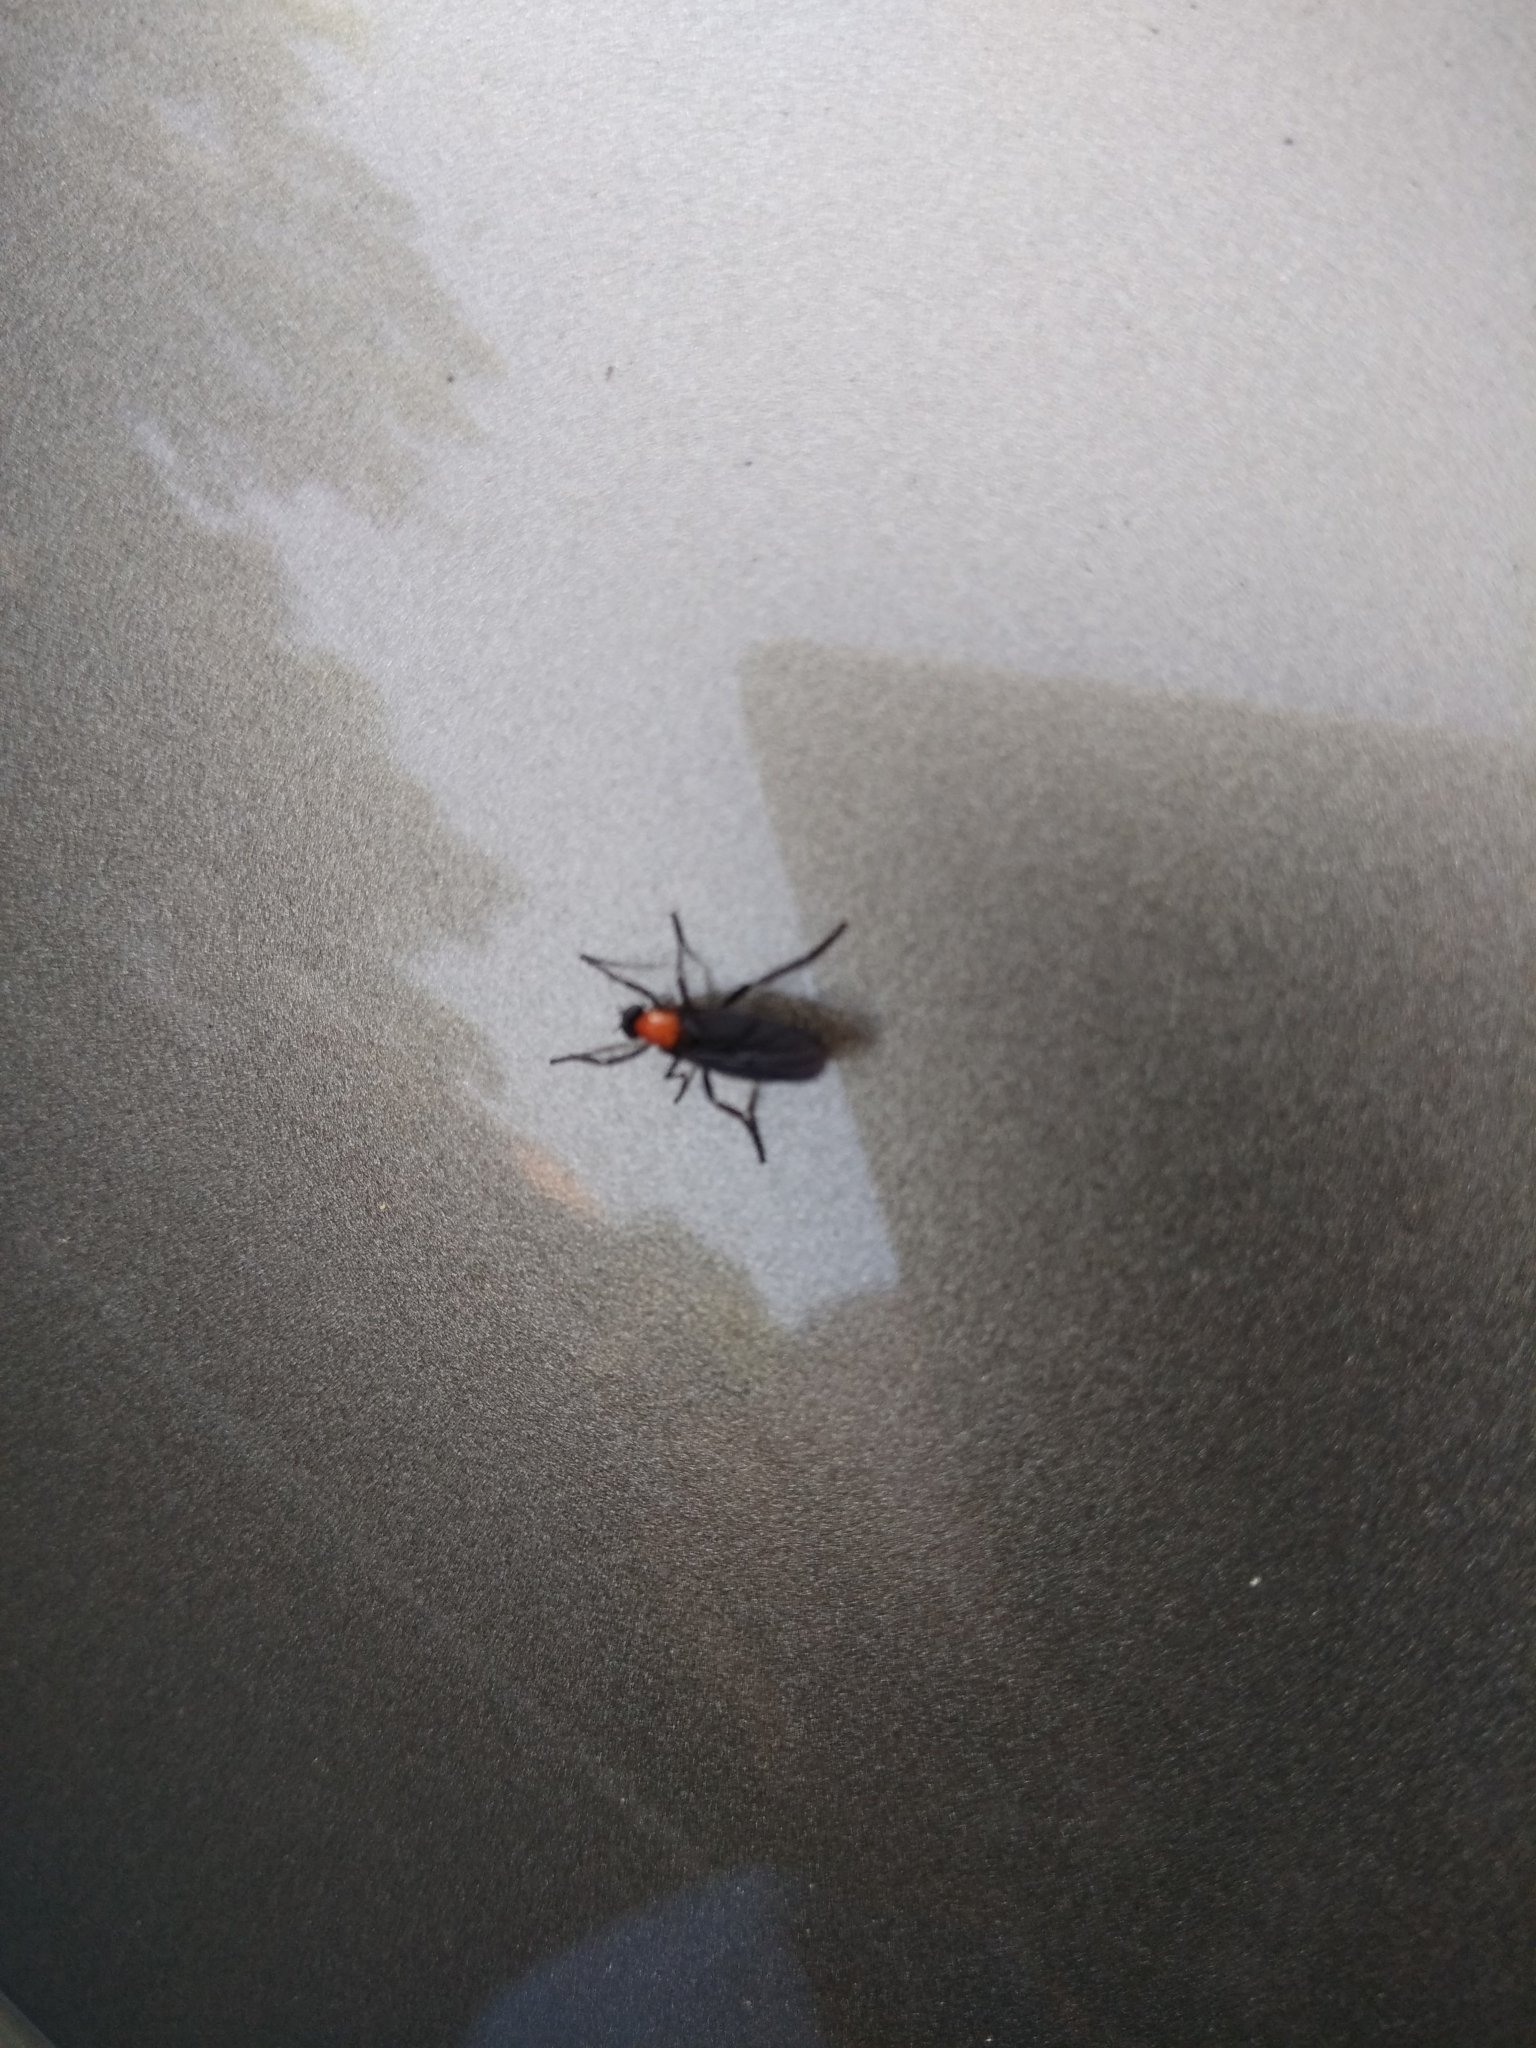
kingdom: Animalia
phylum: Arthropoda
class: Insecta
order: Diptera
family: Bibionidae
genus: Plecia
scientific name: Plecia nearctica
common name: March fly
